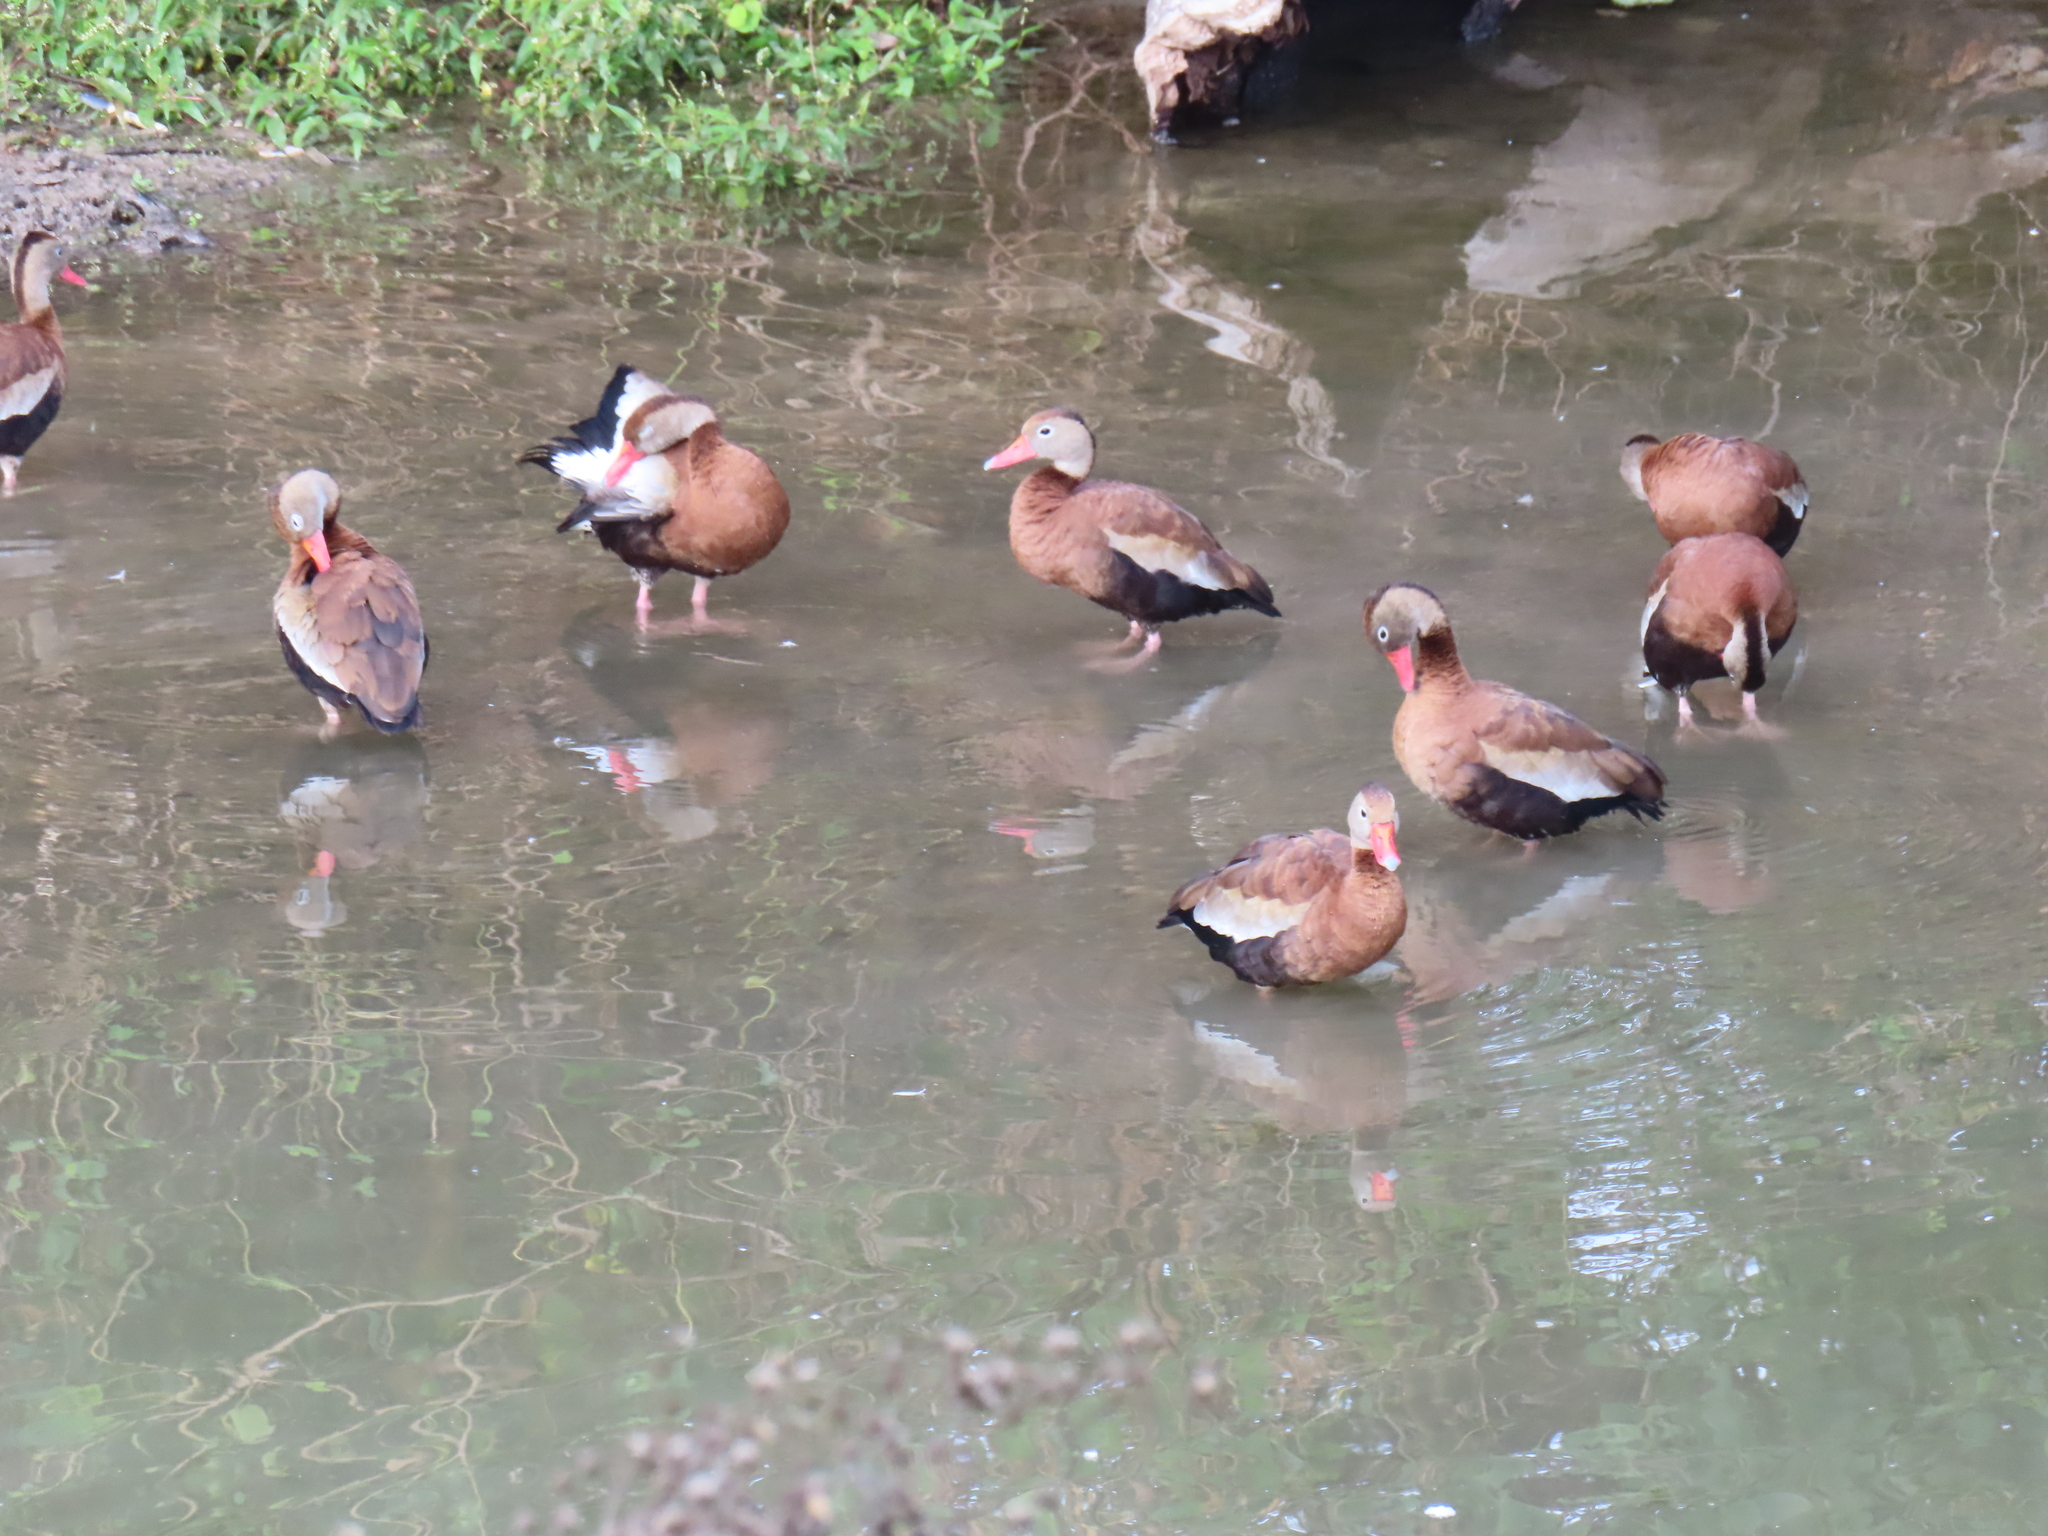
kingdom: Animalia
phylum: Chordata
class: Aves
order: Anseriformes
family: Anatidae
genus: Dendrocygna
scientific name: Dendrocygna autumnalis
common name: Black-bellied whistling duck
